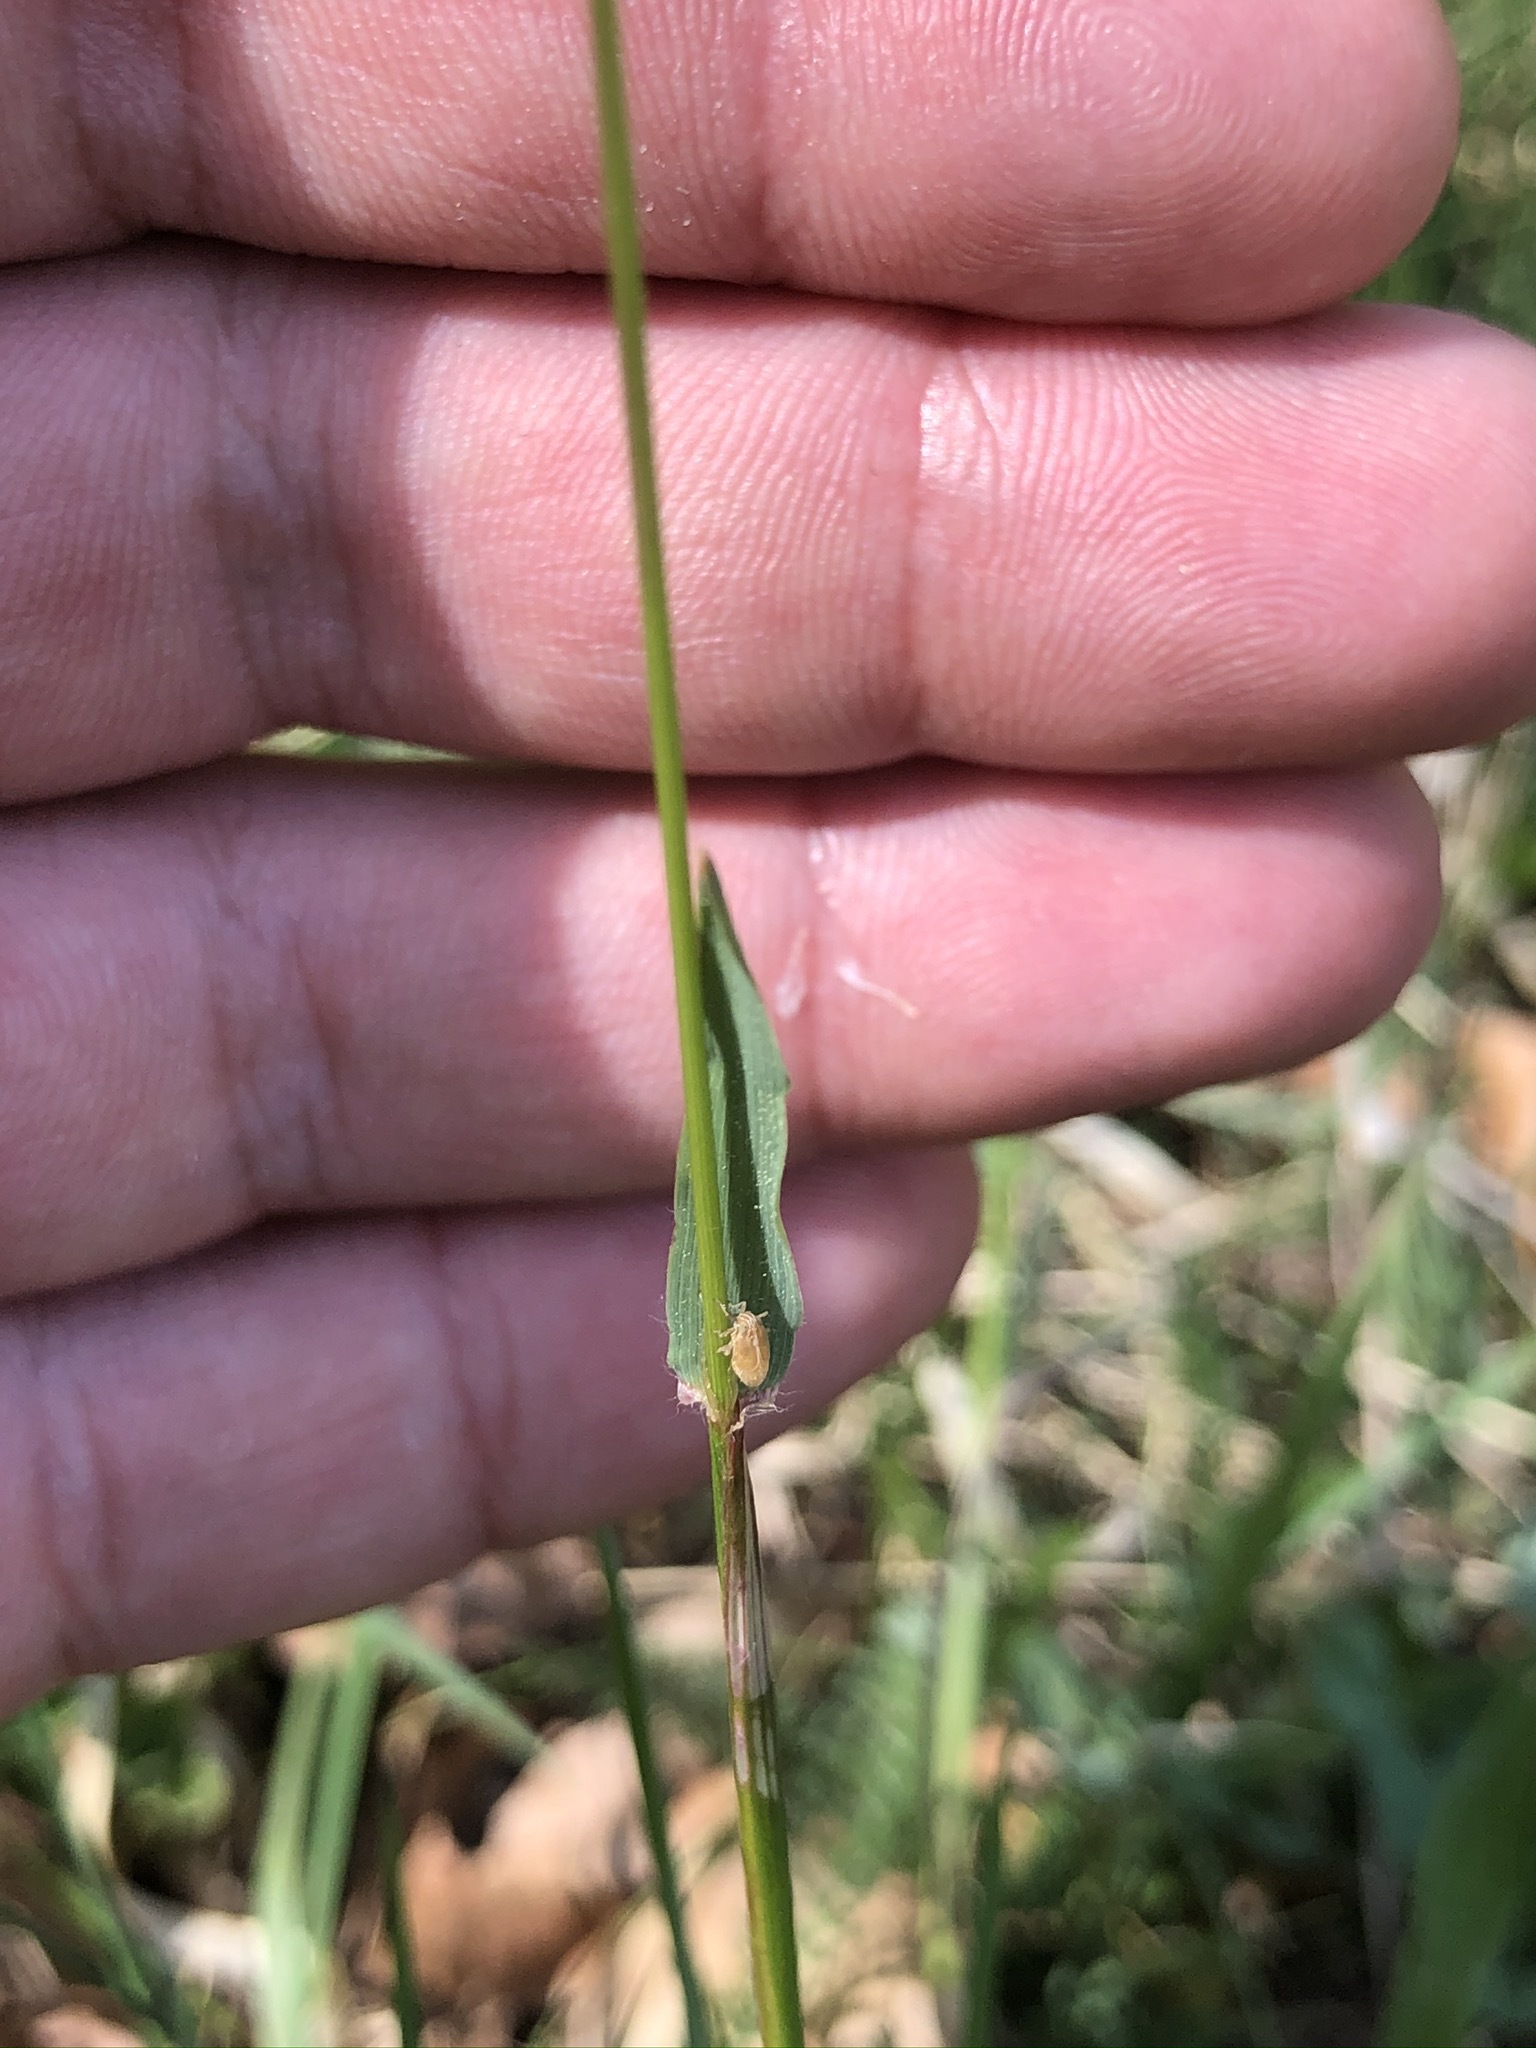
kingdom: Plantae
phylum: Tracheophyta
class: Liliopsida
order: Poales
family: Poaceae
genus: Anthoxanthum
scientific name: Anthoxanthum odoratum
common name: Sweet vernalgrass
